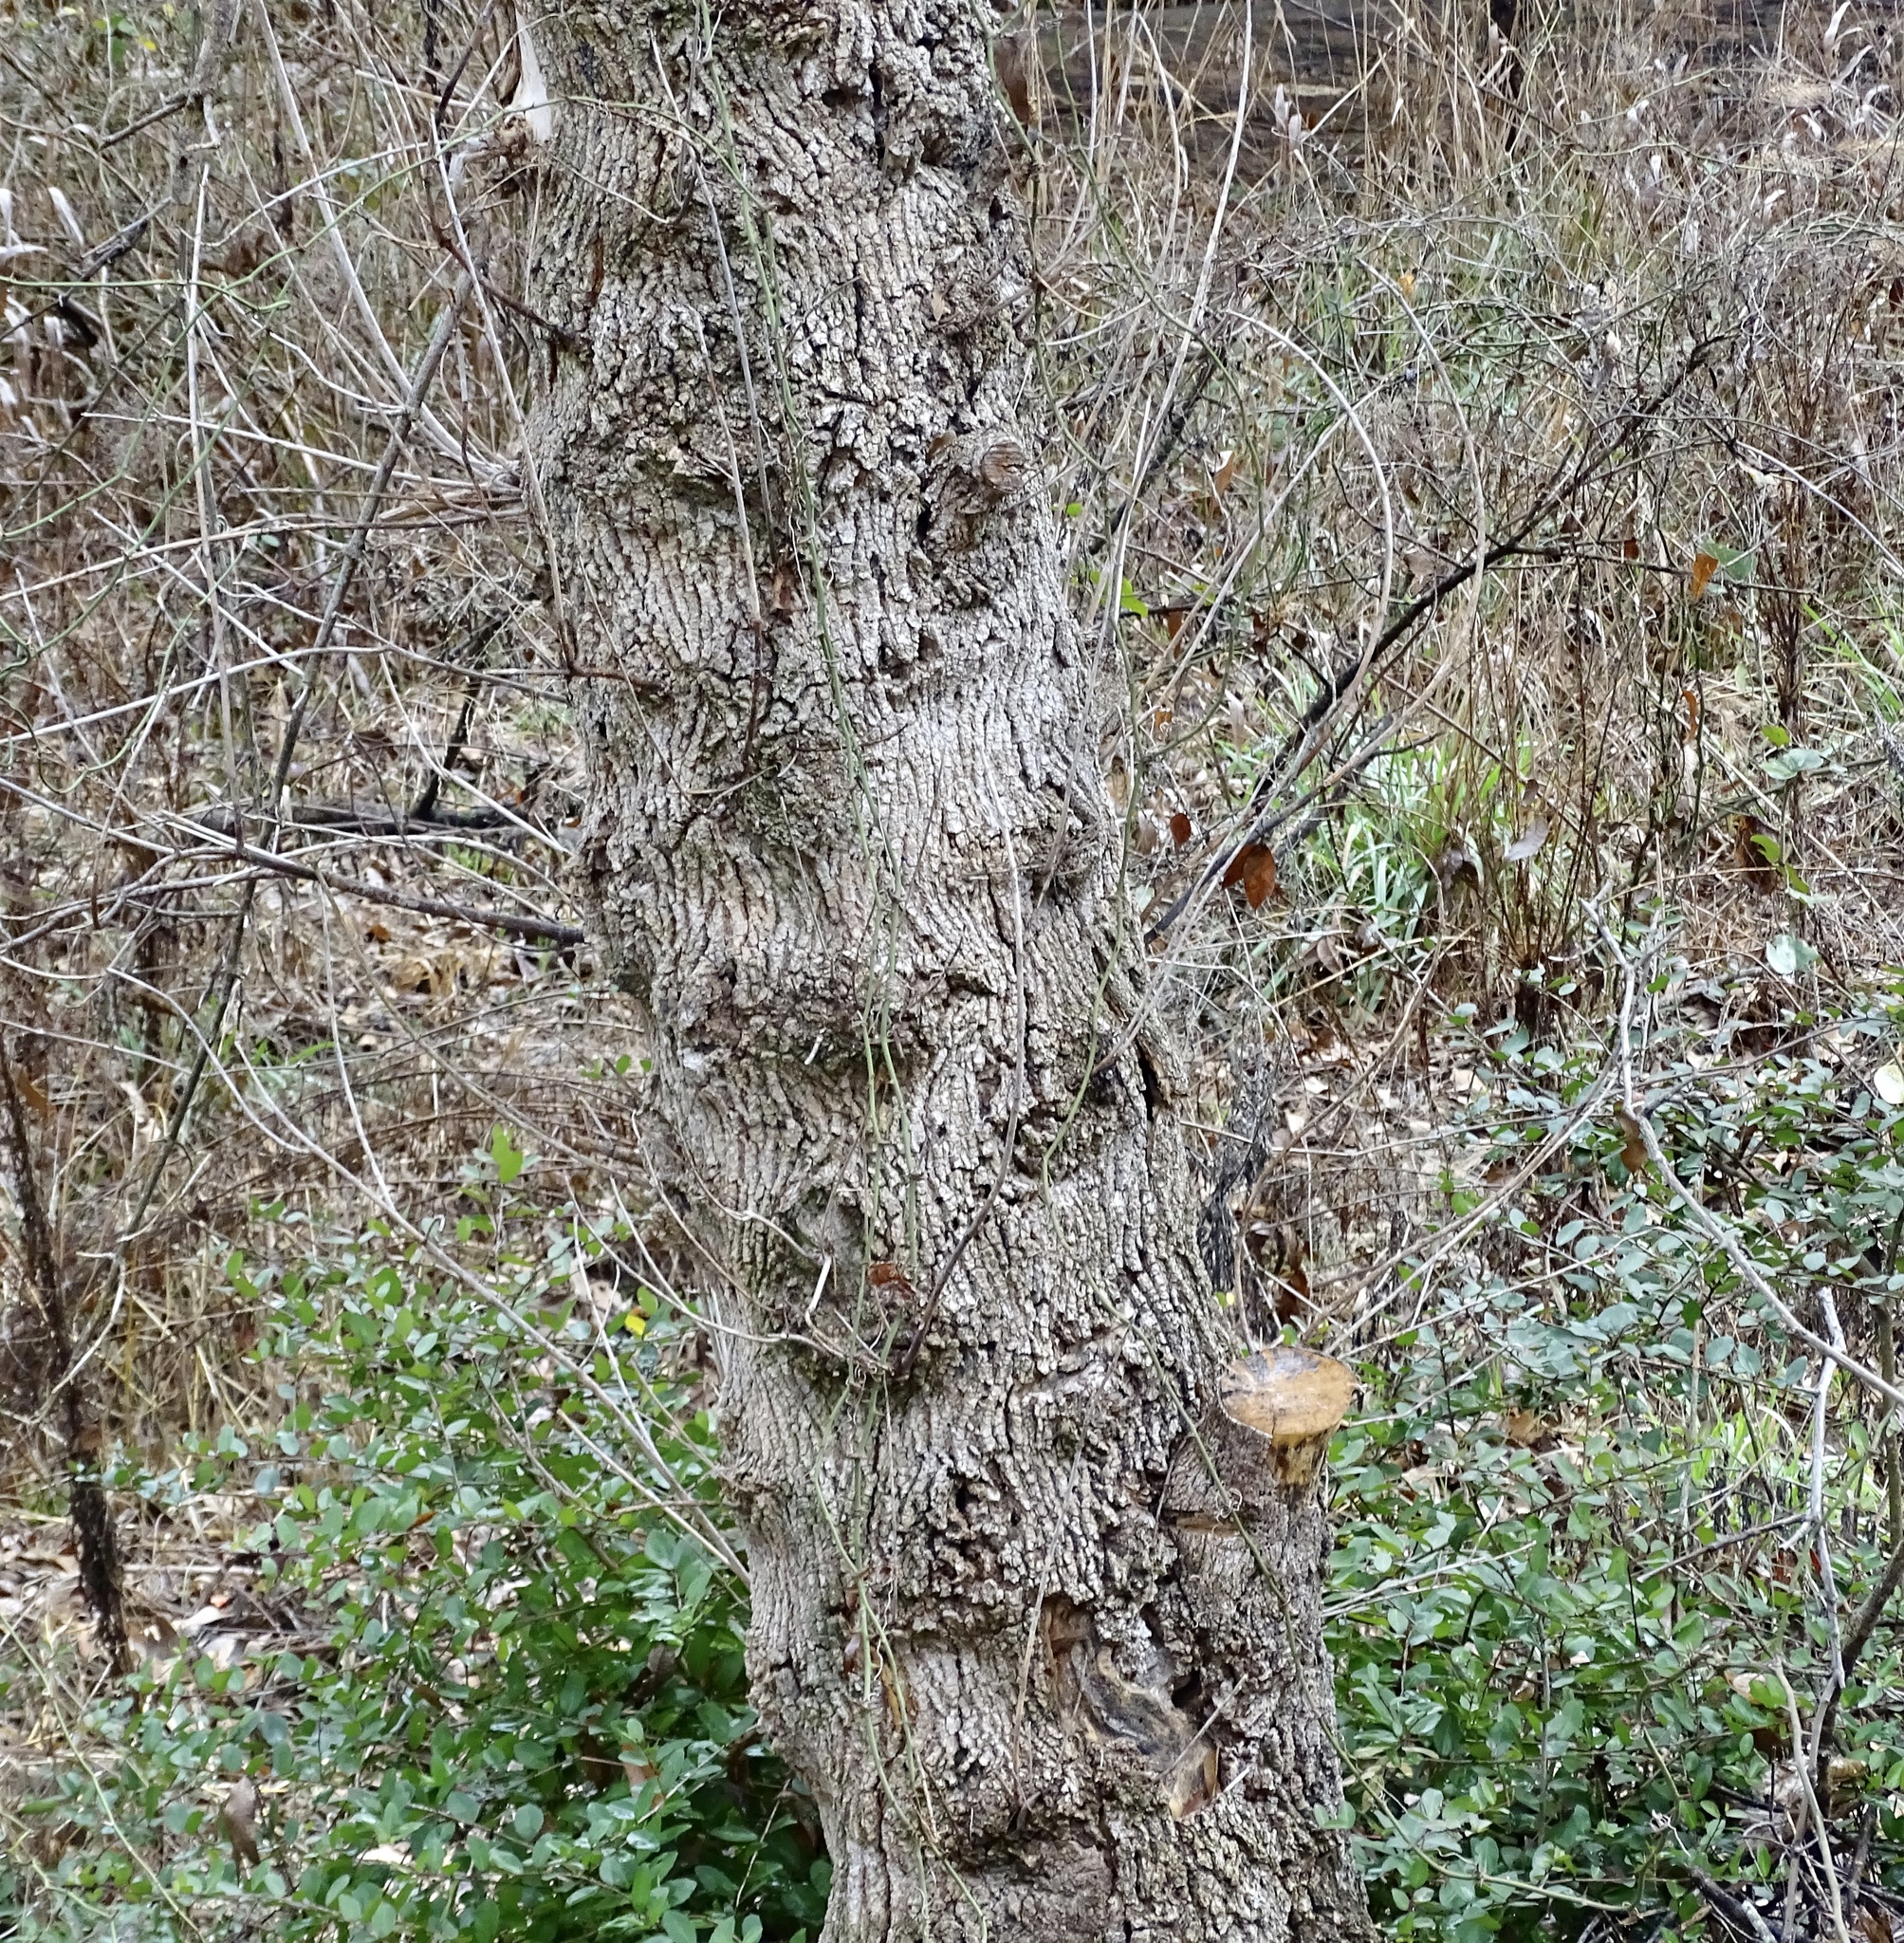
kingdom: Plantae
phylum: Tracheophyta
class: Magnoliopsida
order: Rosales
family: Cannabaceae
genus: Celtis
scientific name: Celtis laevigata
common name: Sugarberry
